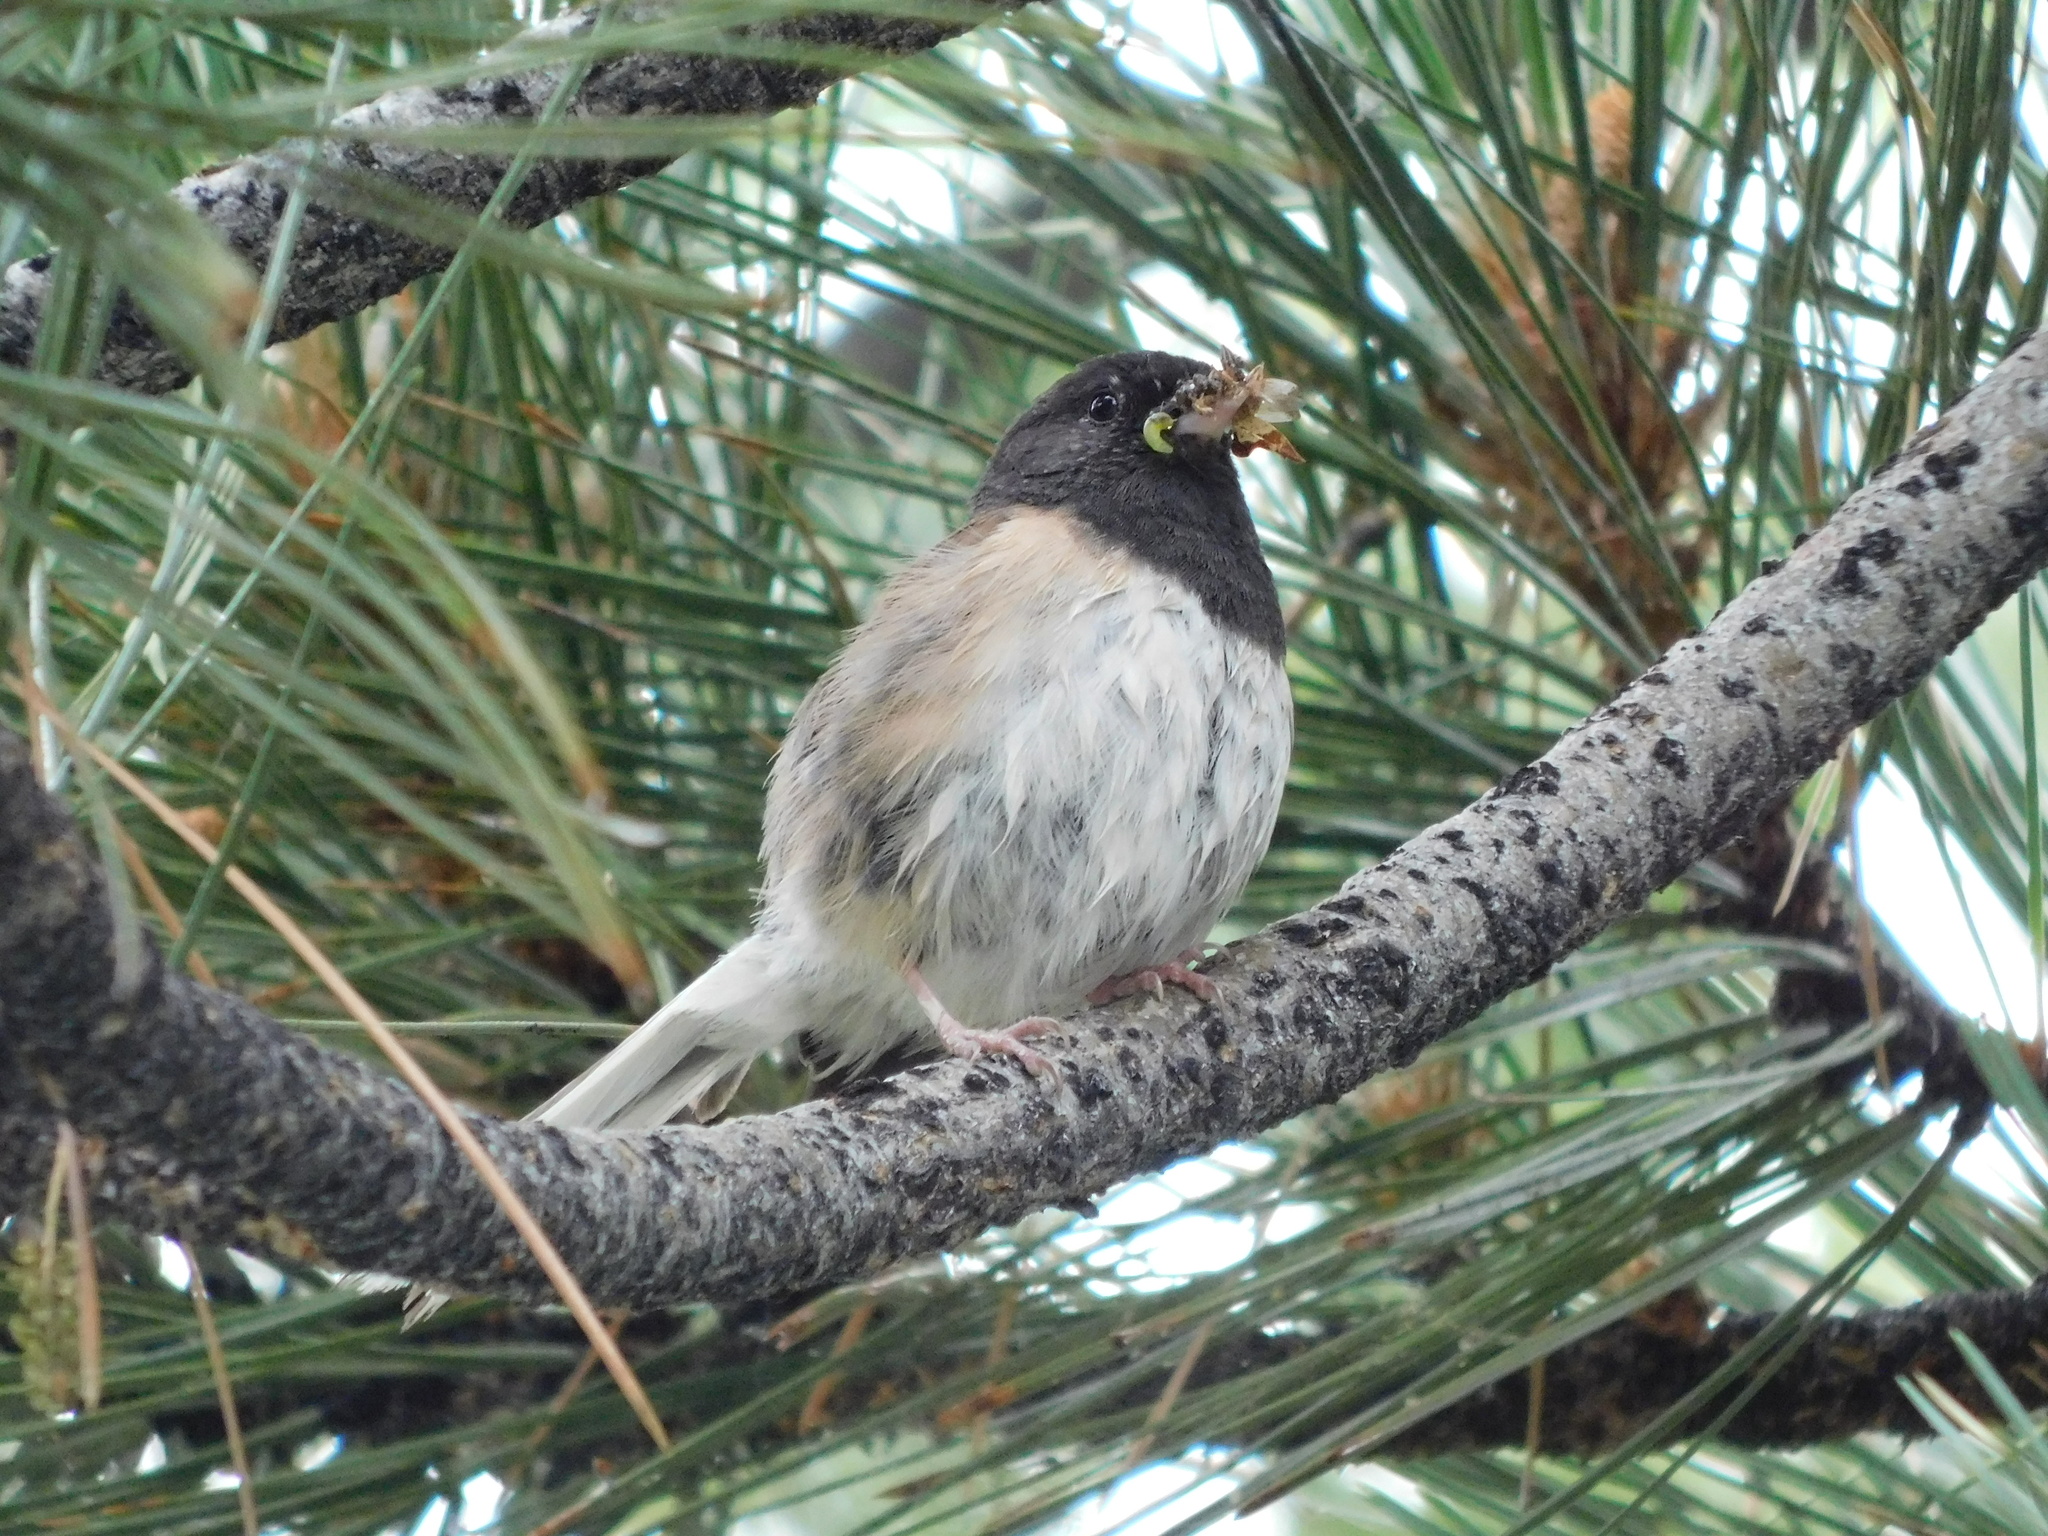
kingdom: Animalia
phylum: Chordata
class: Aves
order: Passeriformes
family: Passerellidae
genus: Junco
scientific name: Junco hyemalis
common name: Dark-eyed junco
